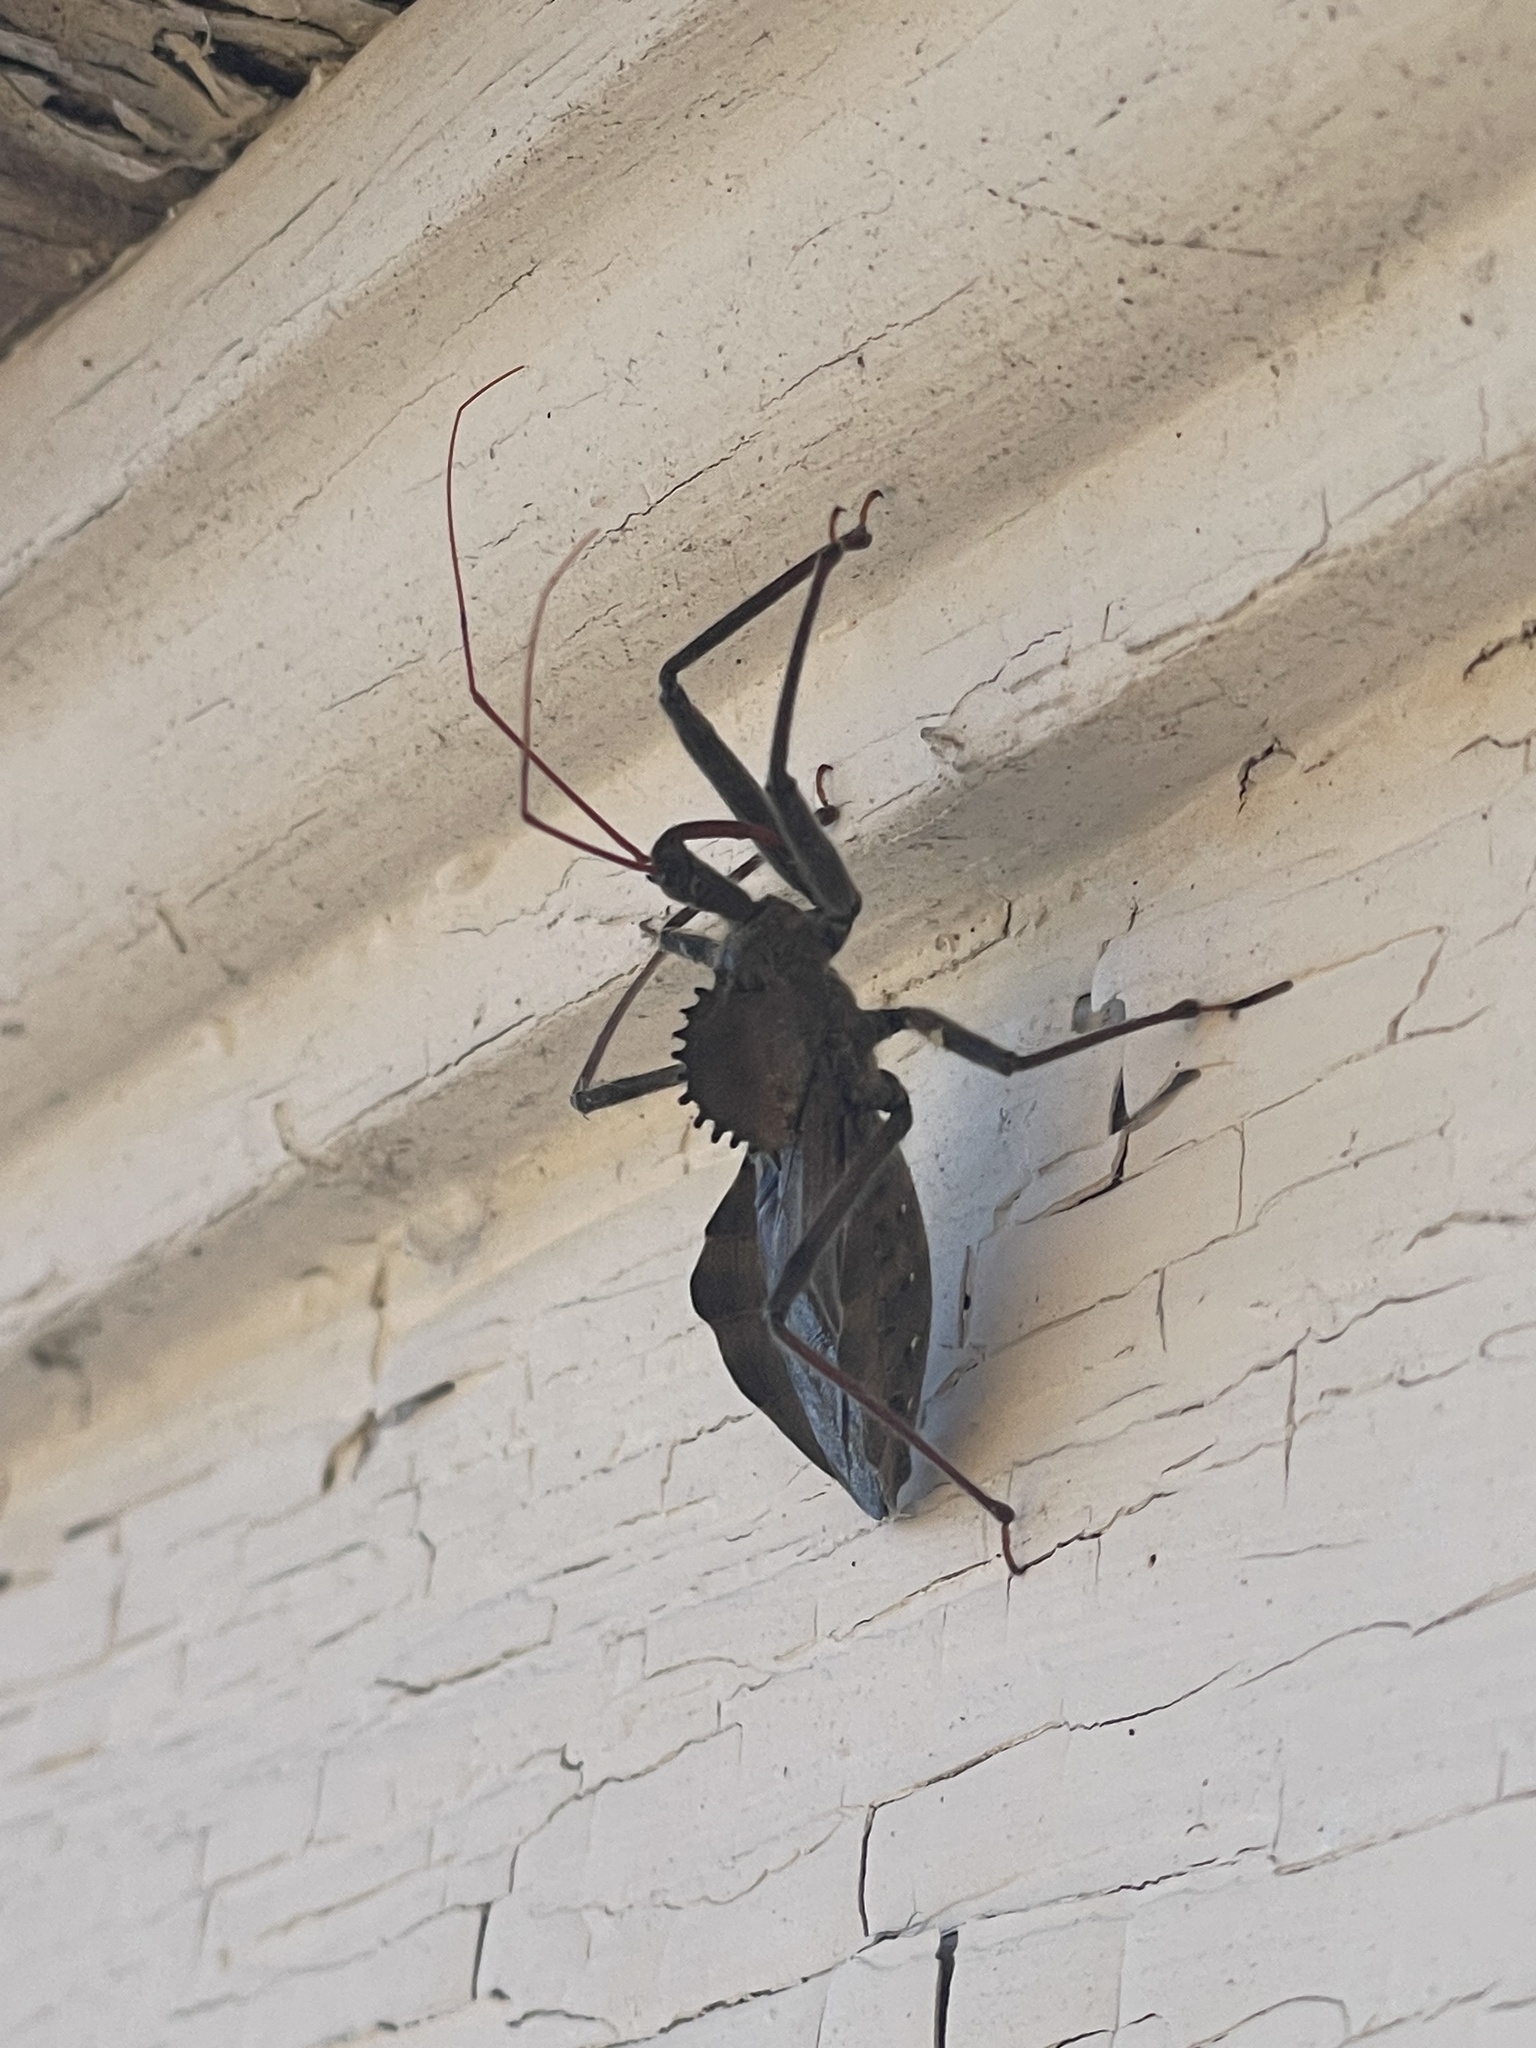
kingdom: Animalia
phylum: Arthropoda
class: Insecta
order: Hemiptera
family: Reduviidae
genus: Arilus
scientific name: Arilus cristatus
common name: North american wheel bug
